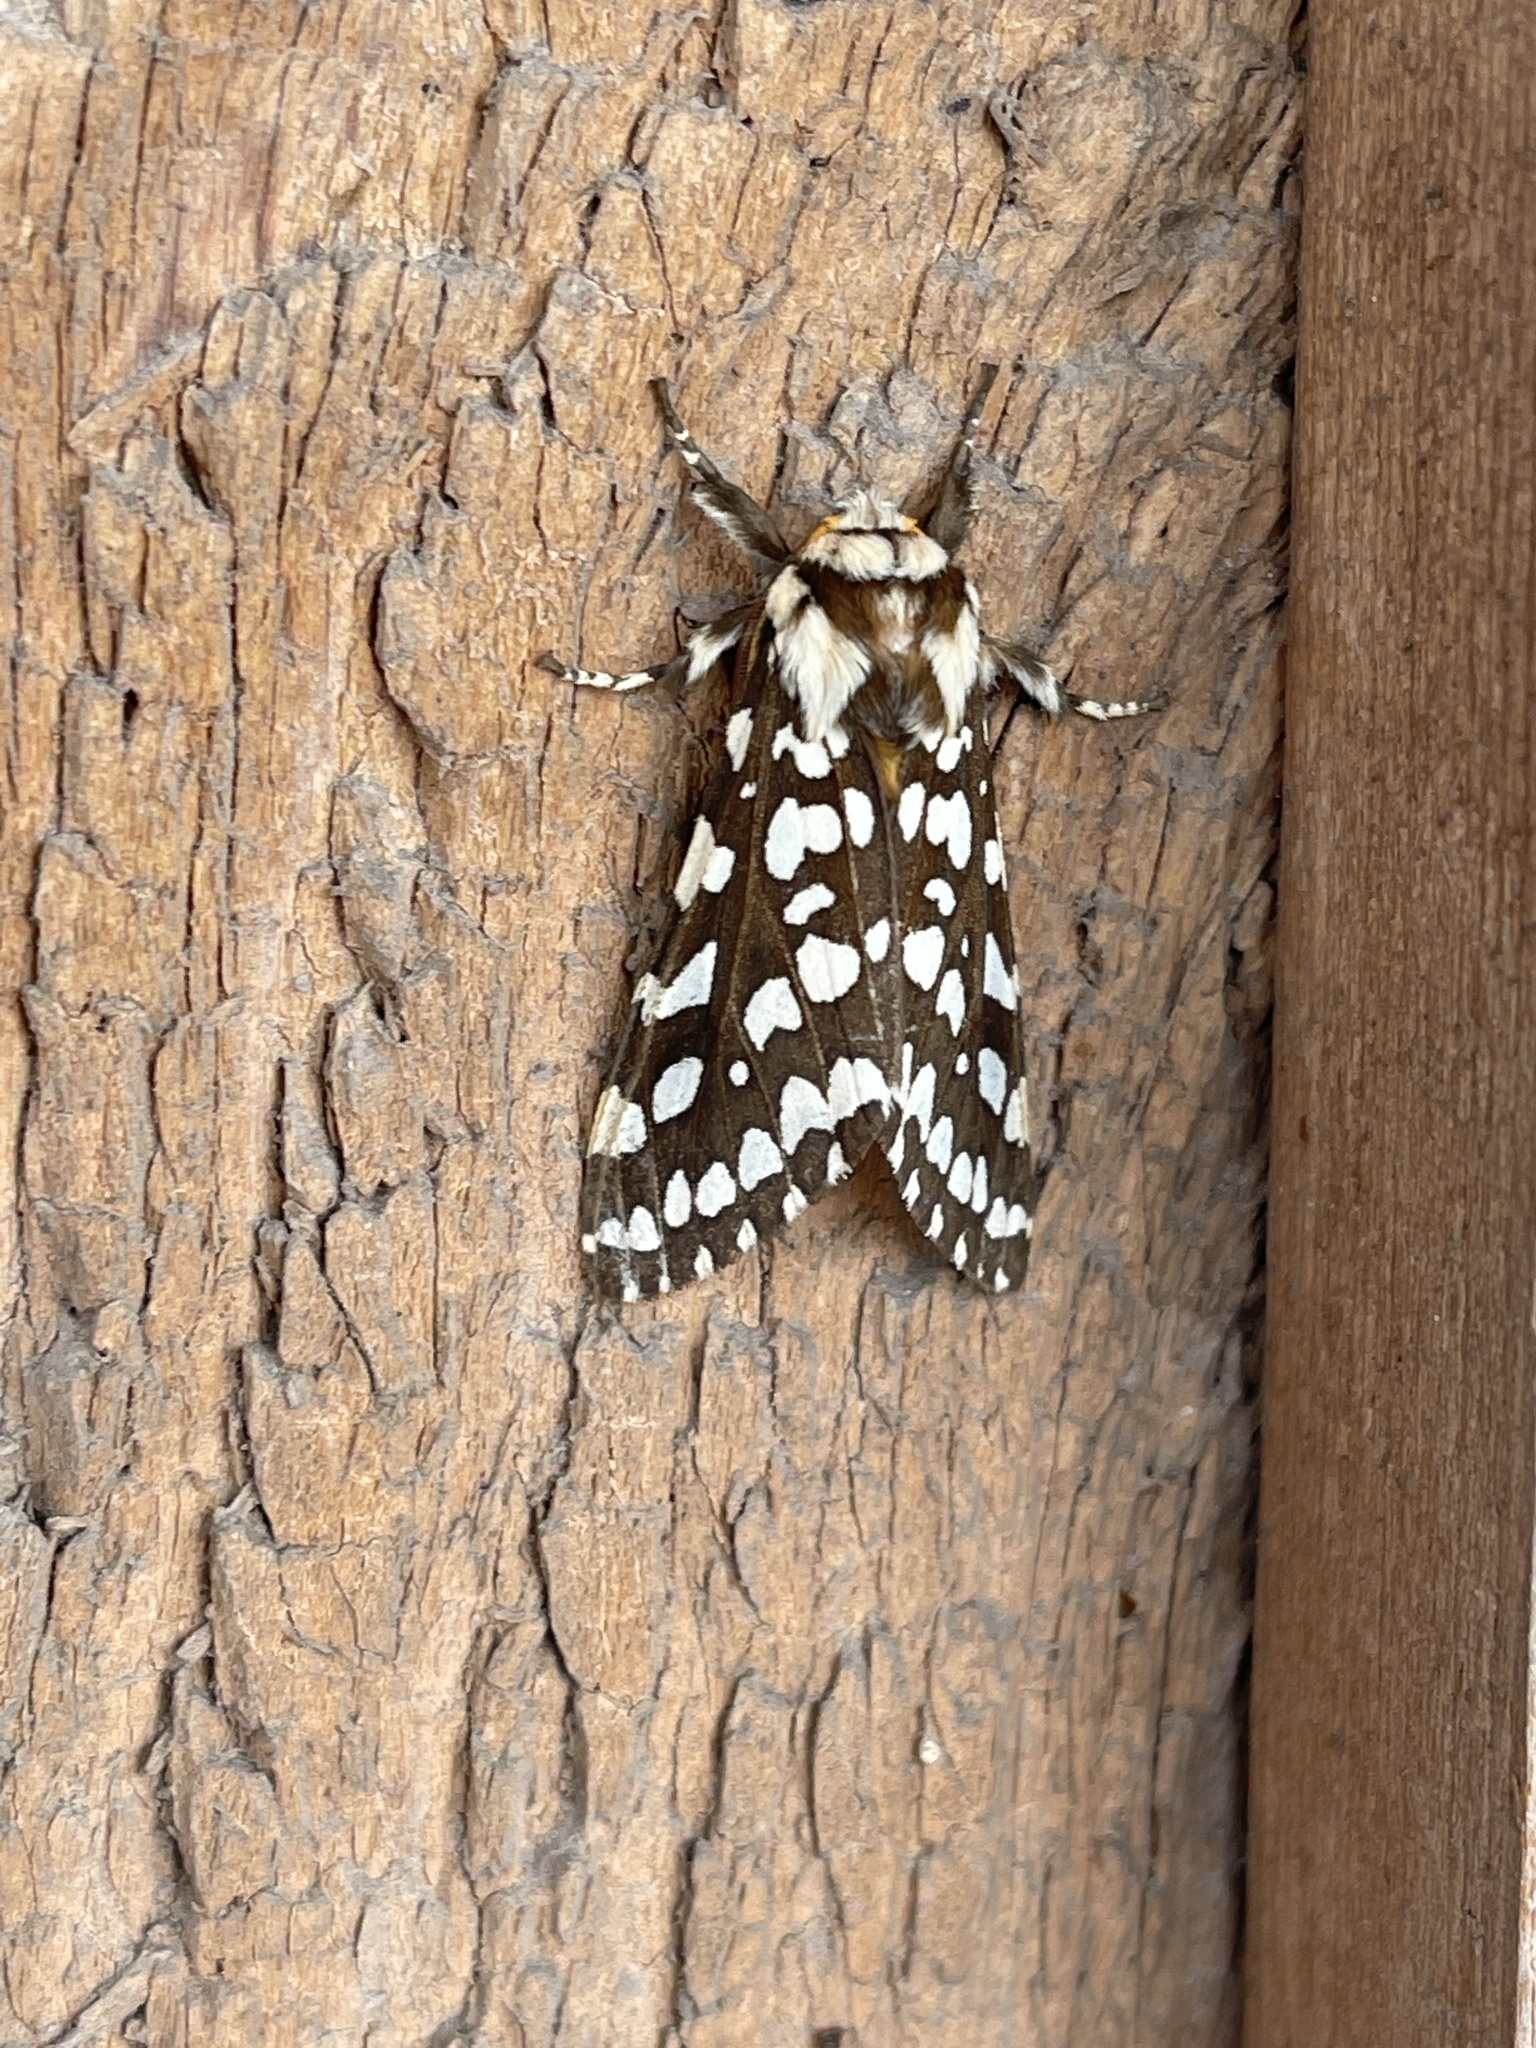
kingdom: Animalia
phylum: Arthropoda
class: Insecta
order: Lepidoptera
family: Erebidae
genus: Lophocampa
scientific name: Lophocampa argentata
